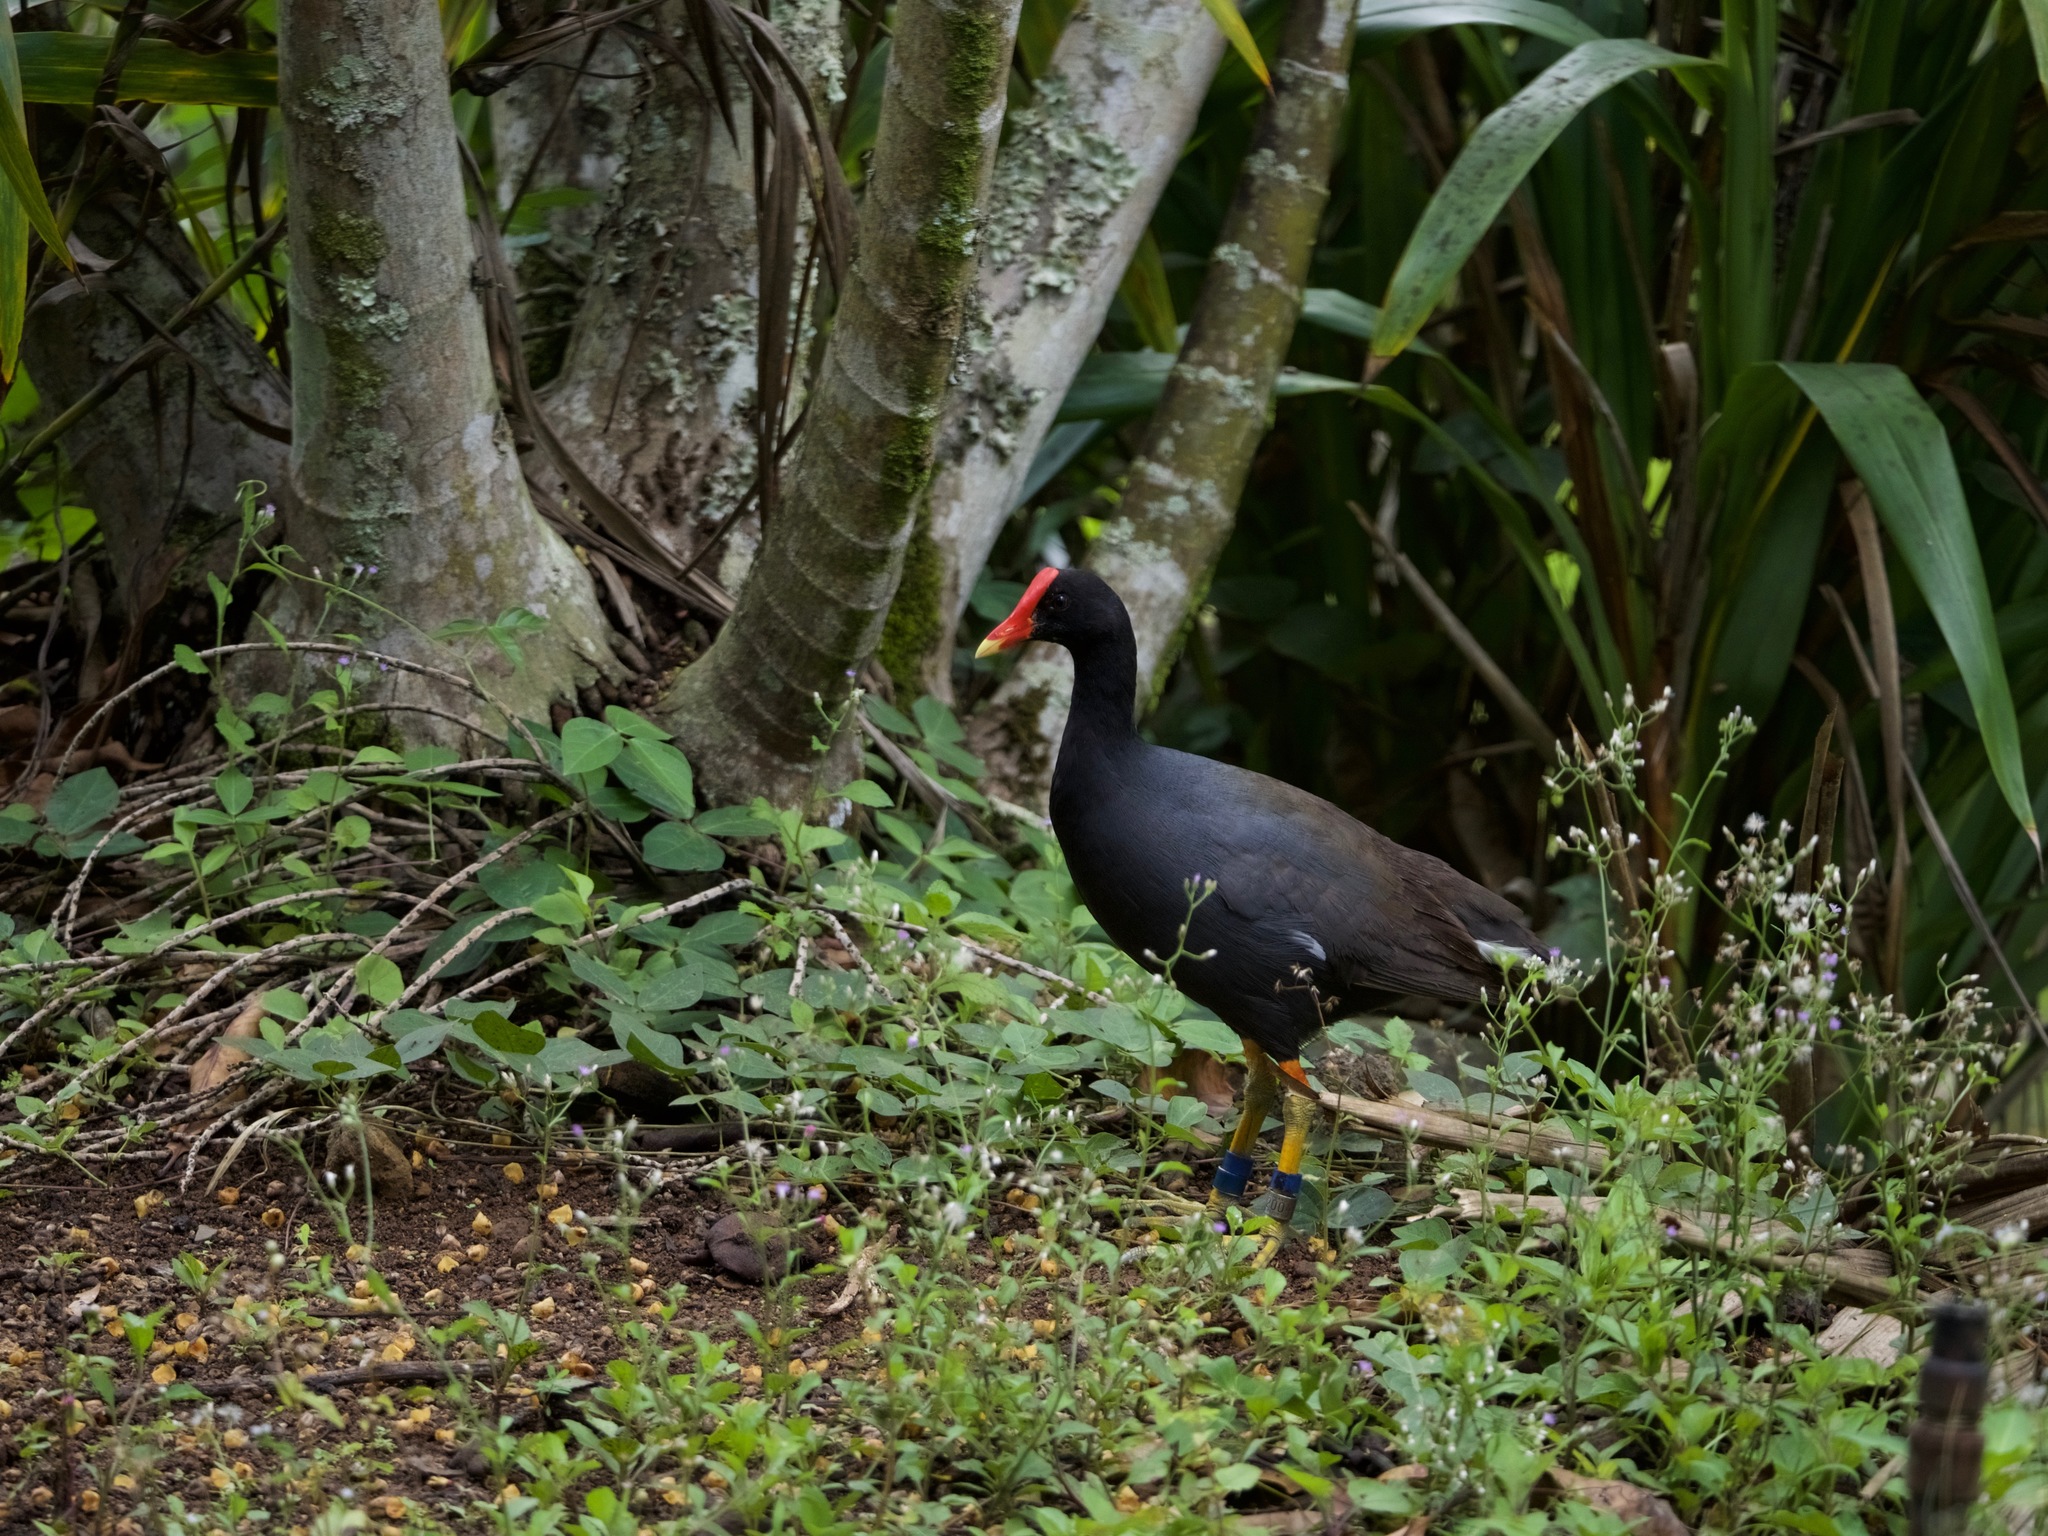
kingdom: Animalia
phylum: Chordata
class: Aves
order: Gruiformes
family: Rallidae
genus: Gallinula
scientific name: Gallinula chloropus
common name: Common moorhen
